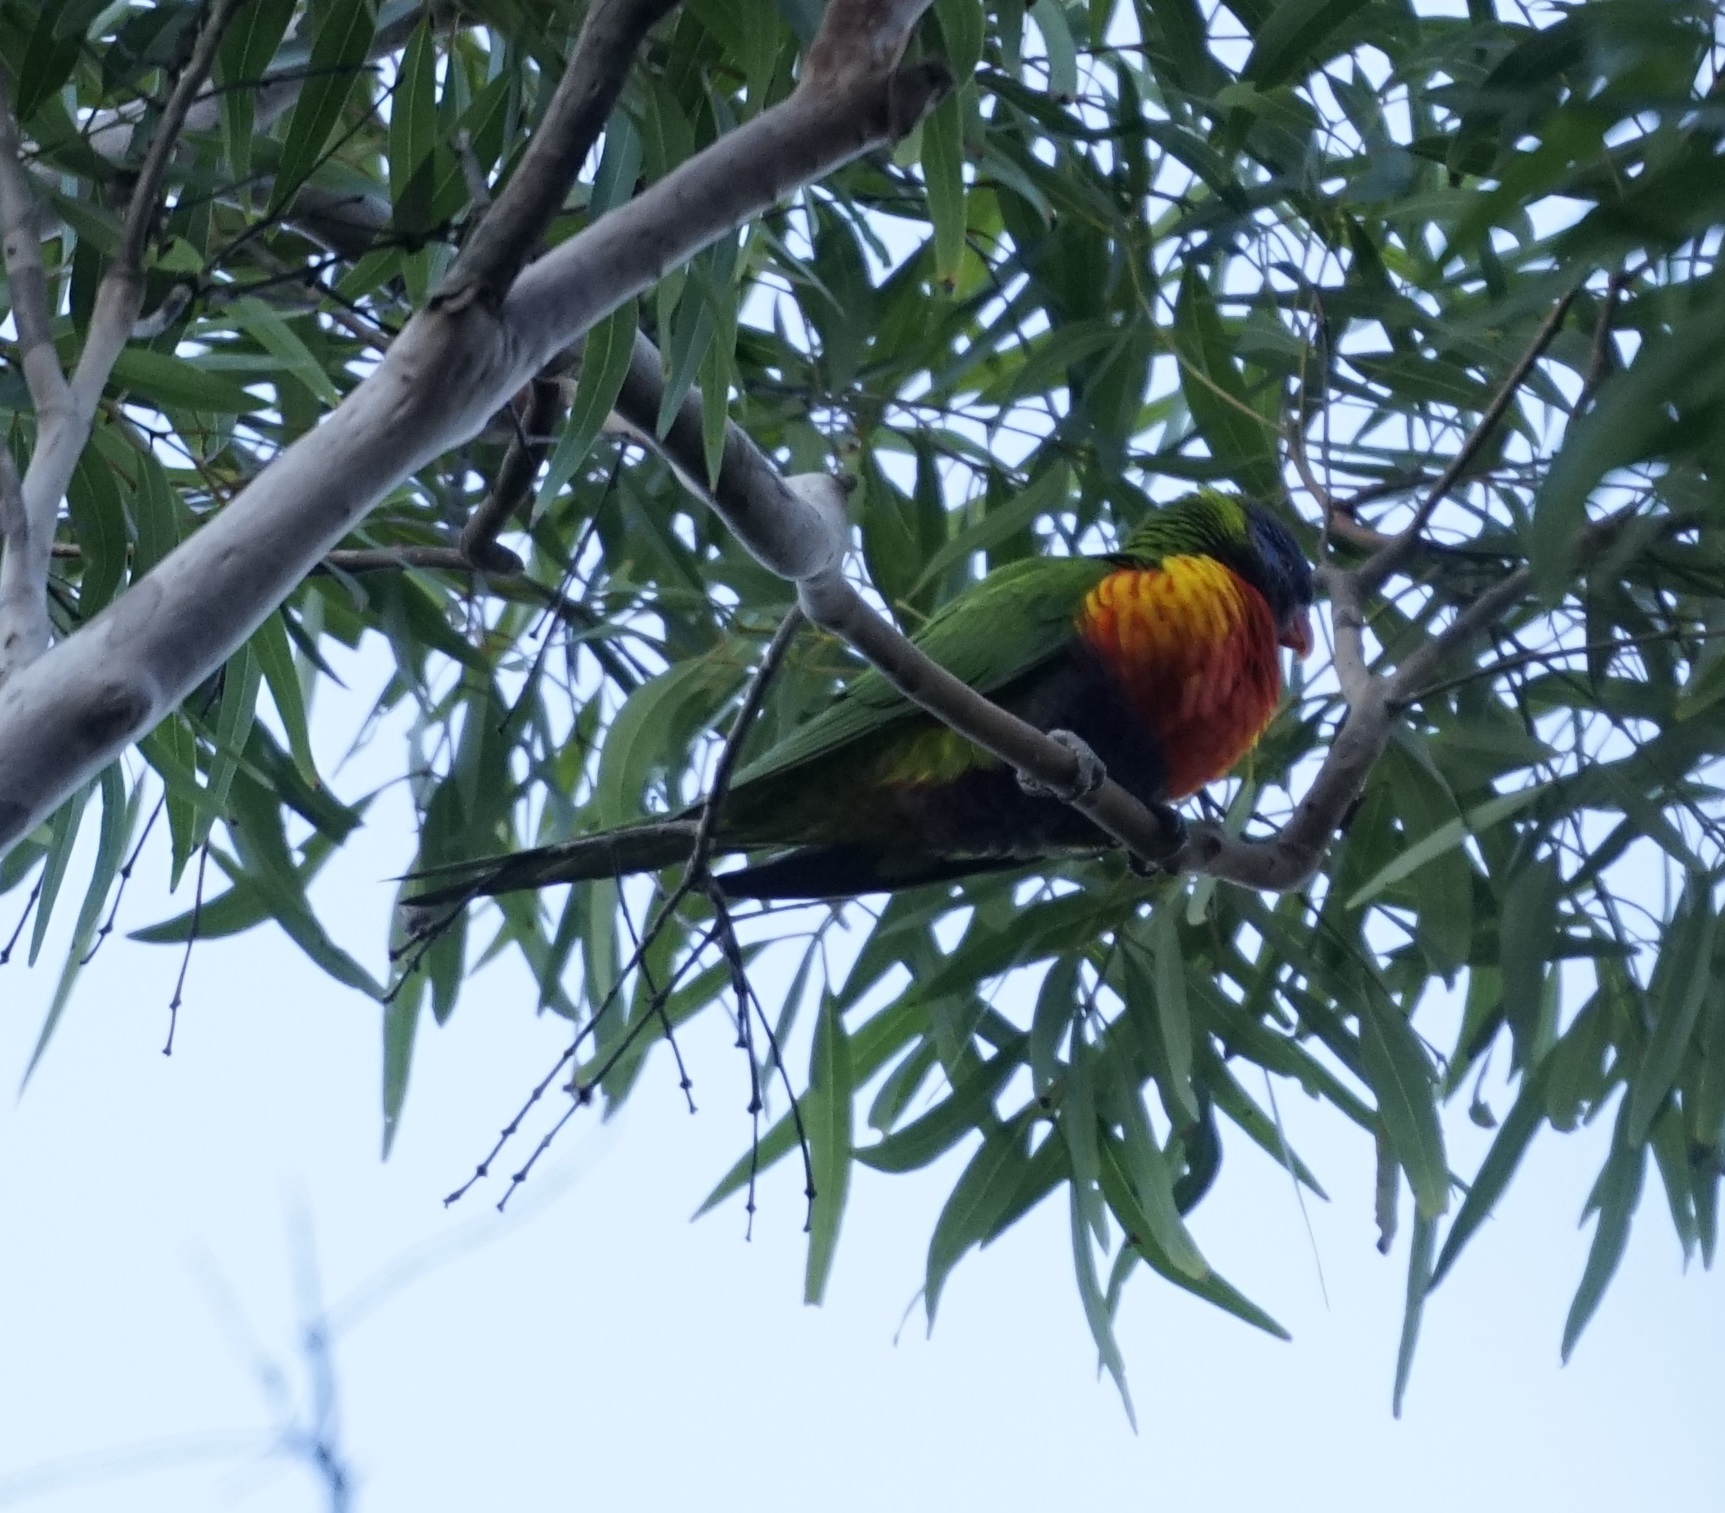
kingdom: Animalia
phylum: Chordata
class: Aves
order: Psittaciformes
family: Psittacidae
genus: Trichoglossus
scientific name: Trichoglossus haematodus
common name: Coconut lorikeet
